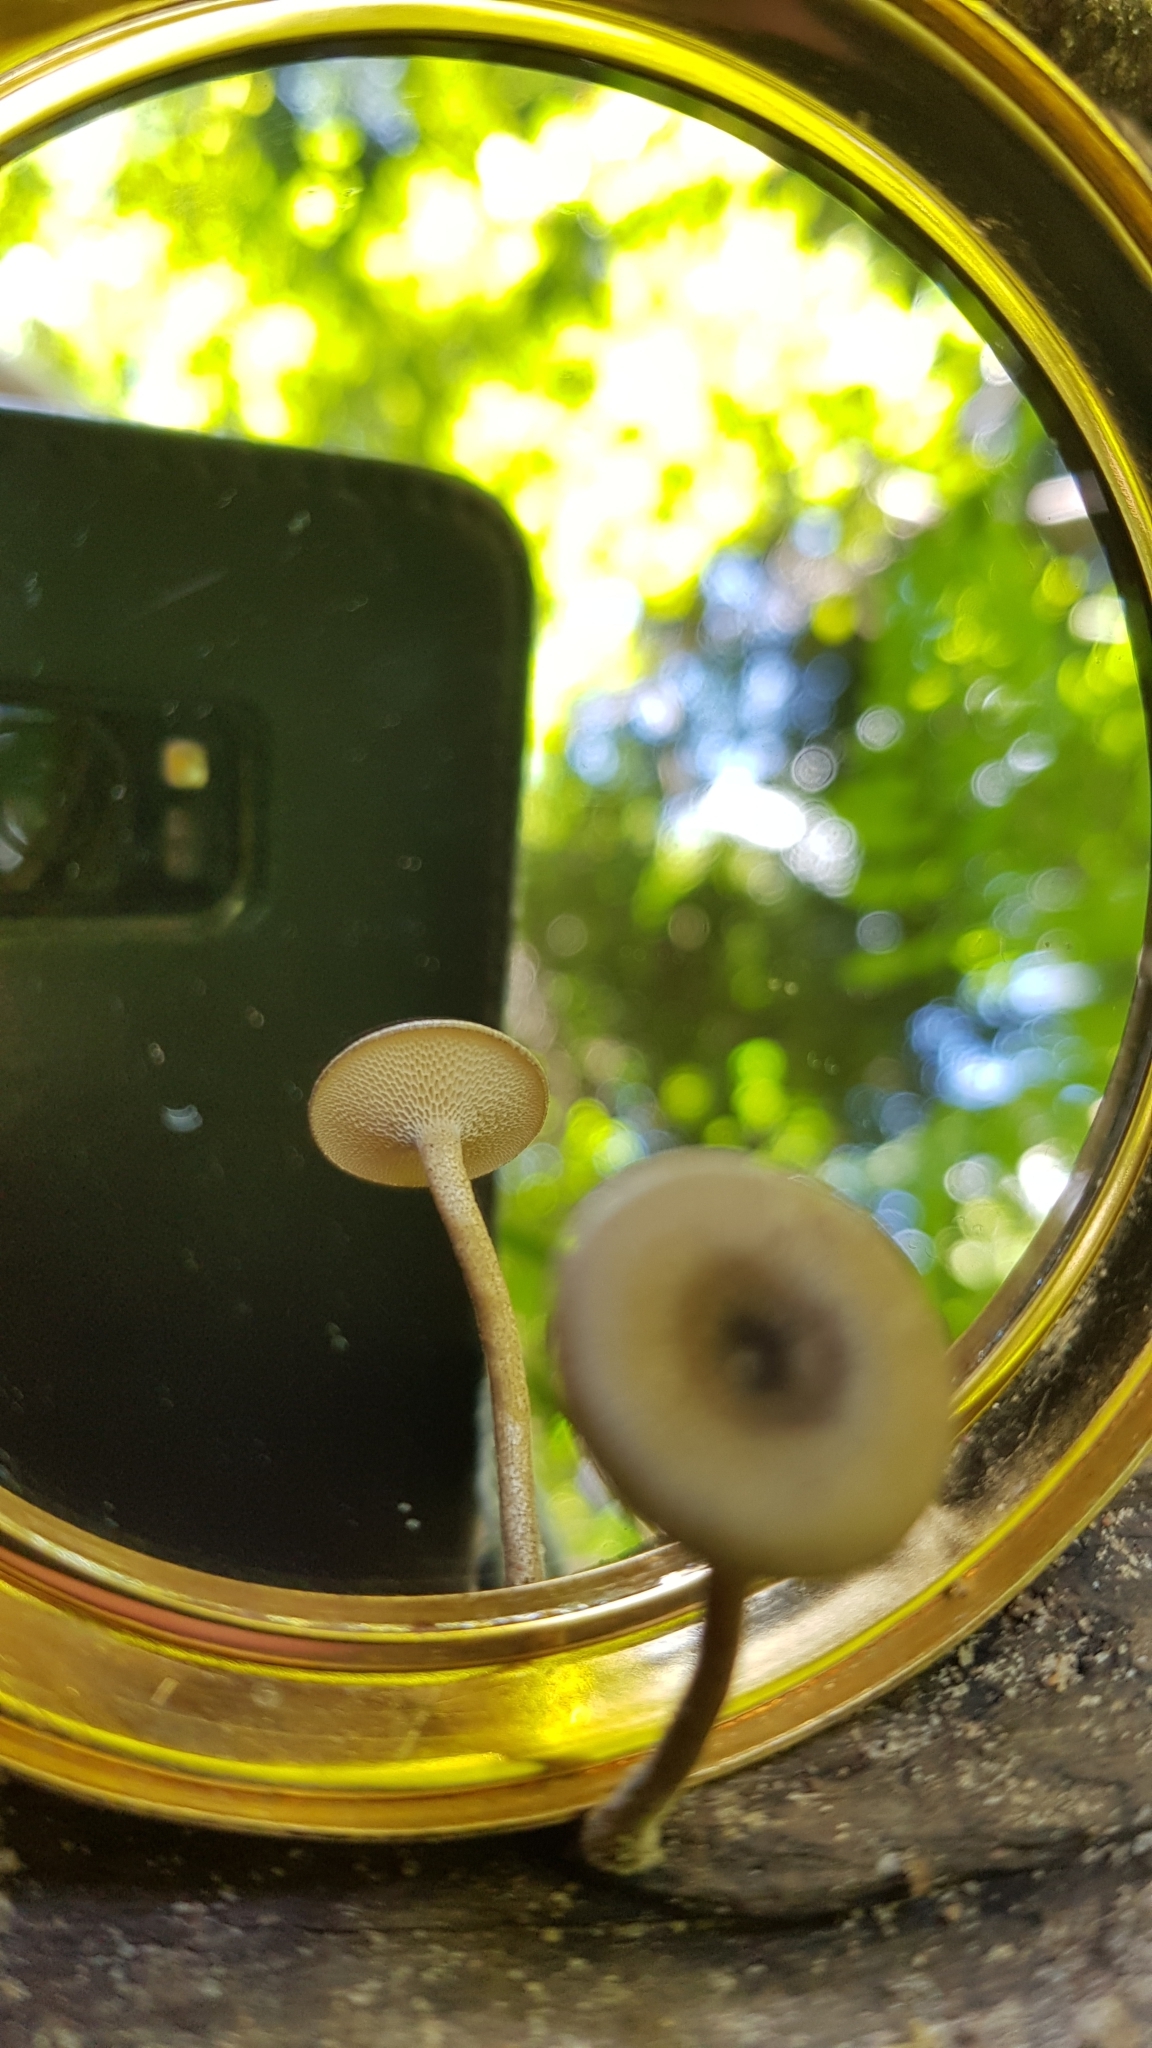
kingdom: Fungi
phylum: Basidiomycota
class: Agaricomycetes
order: Polyporales
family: Polyporaceae
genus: Lentinus
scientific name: Lentinus arcularius
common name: Spring polypore
